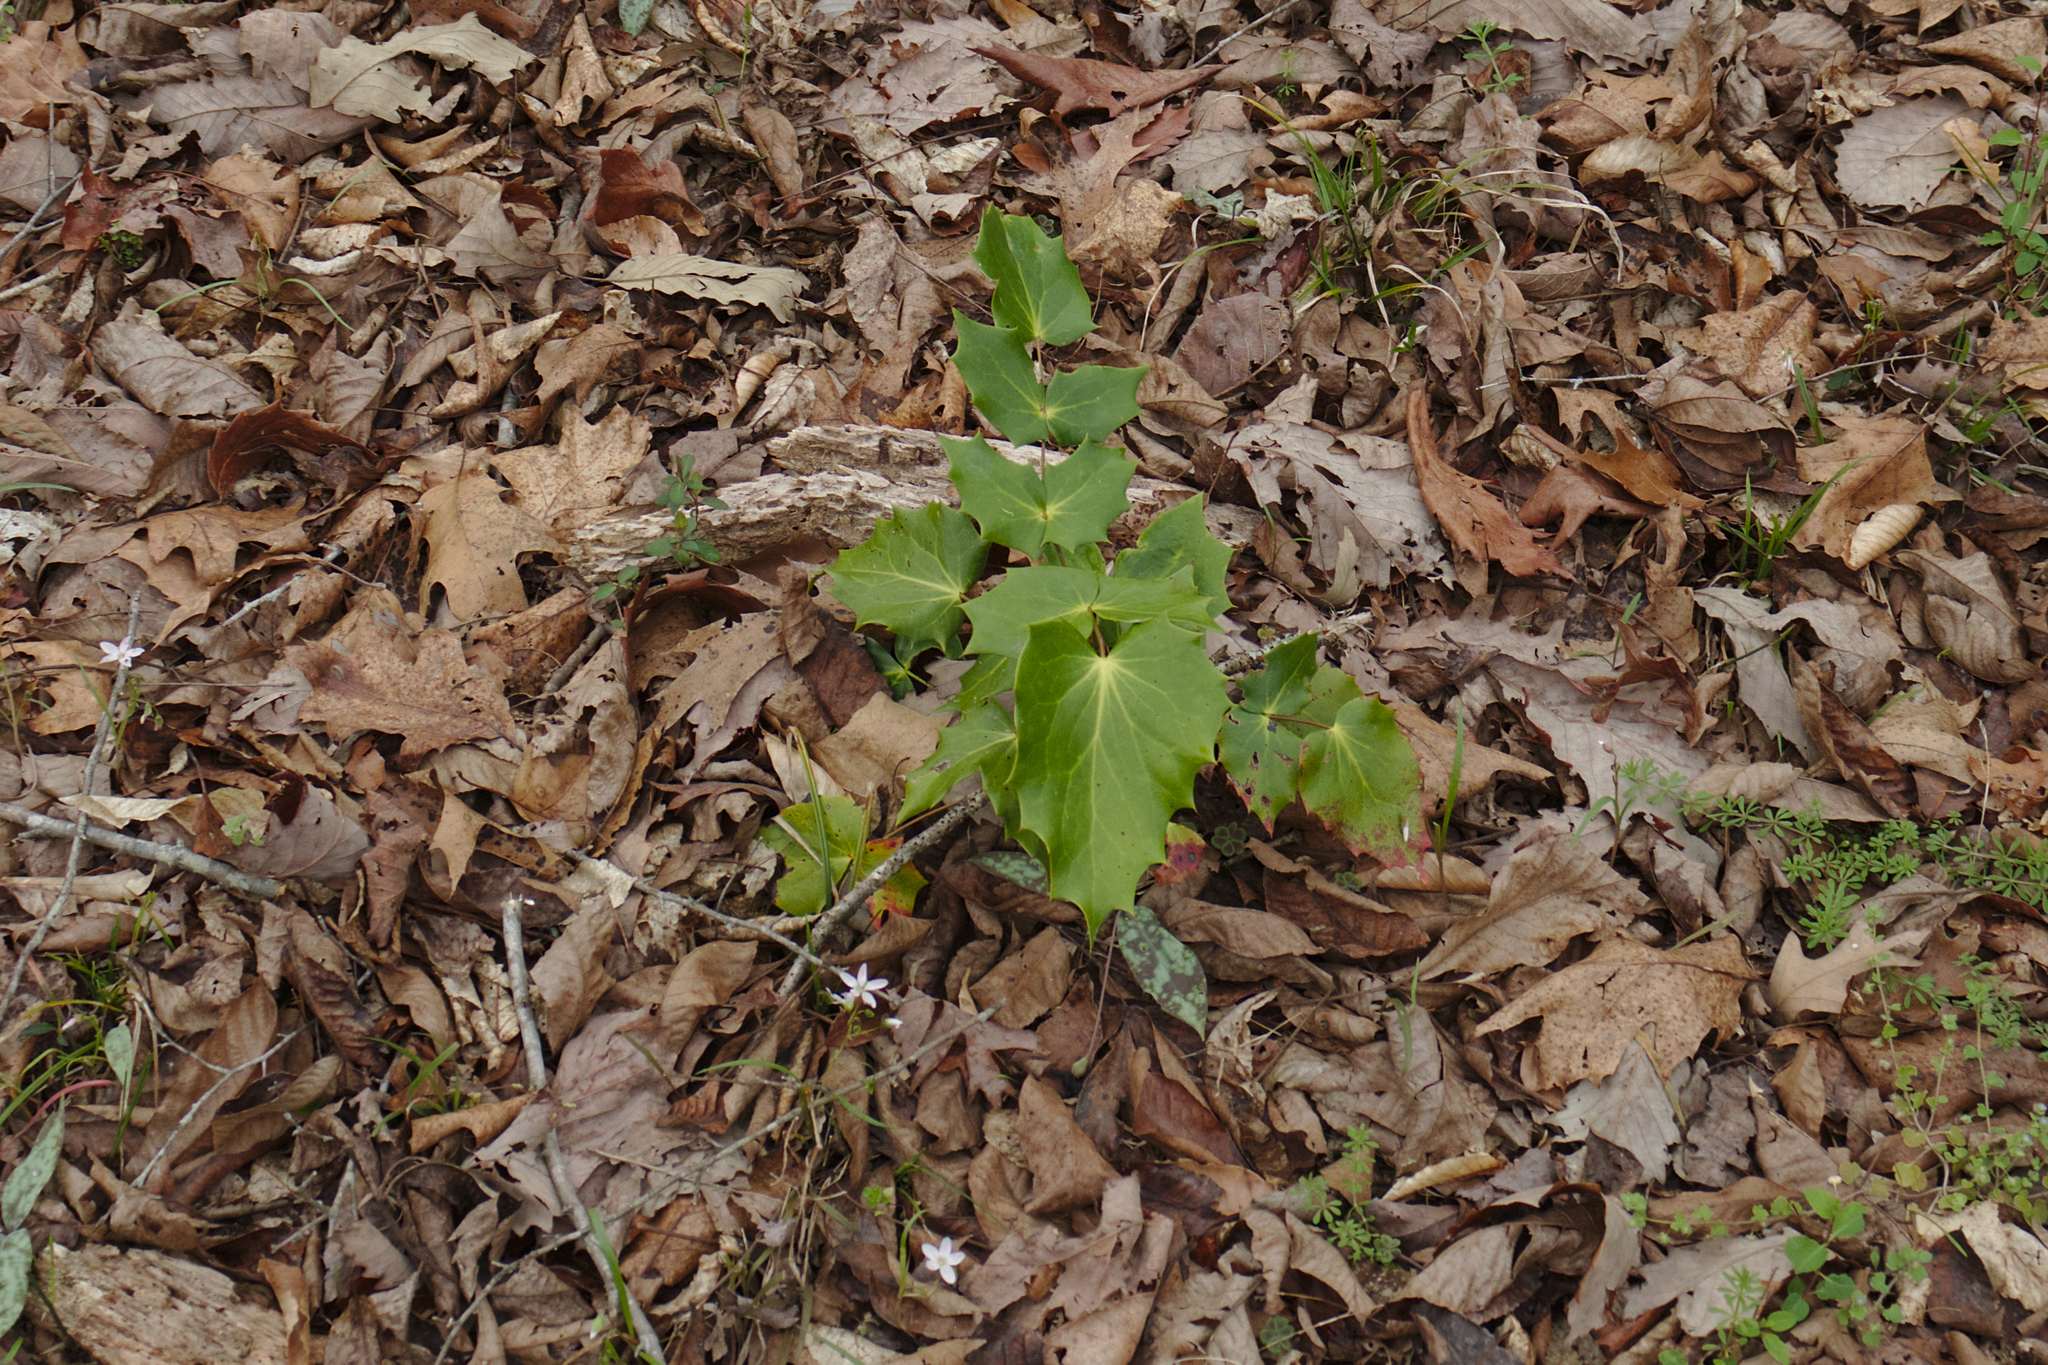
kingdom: Plantae
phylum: Tracheophyta
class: Magnoliopsida
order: Ranunculales
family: Berberidaceae
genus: Mahonia
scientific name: Mahonia bealei
